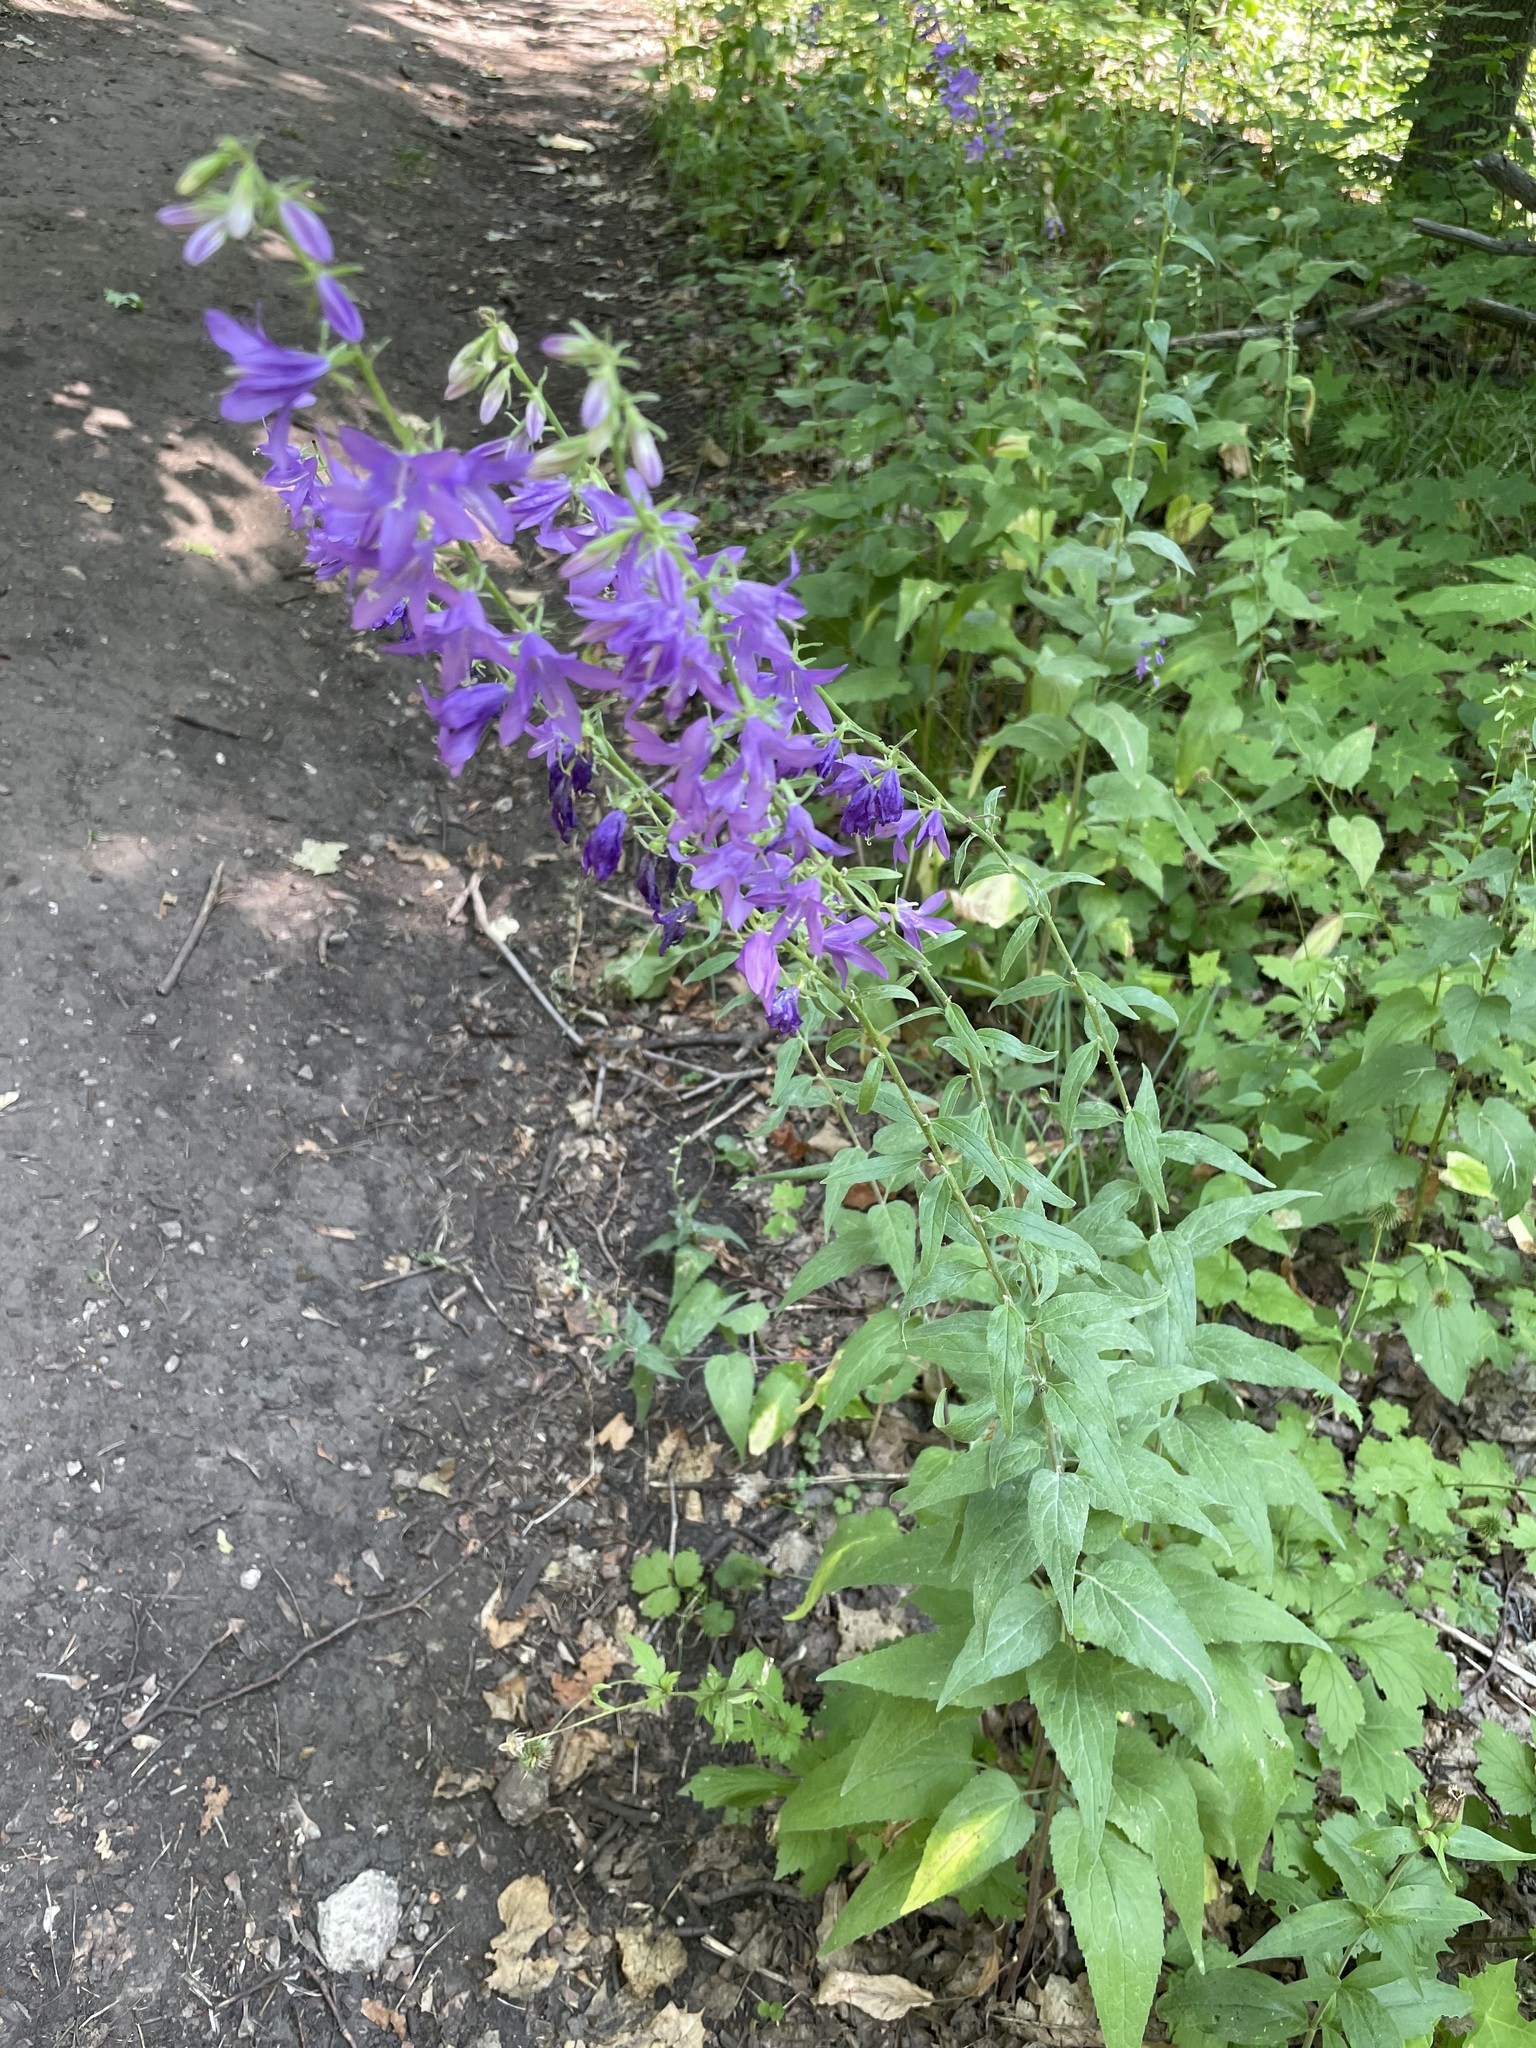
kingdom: Plantae
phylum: Tracheophyta
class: Magnoliopsida
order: Asterales
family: Campanulaceae
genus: Campanula
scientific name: Campanula rapunculoides
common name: Creeping bellflower
